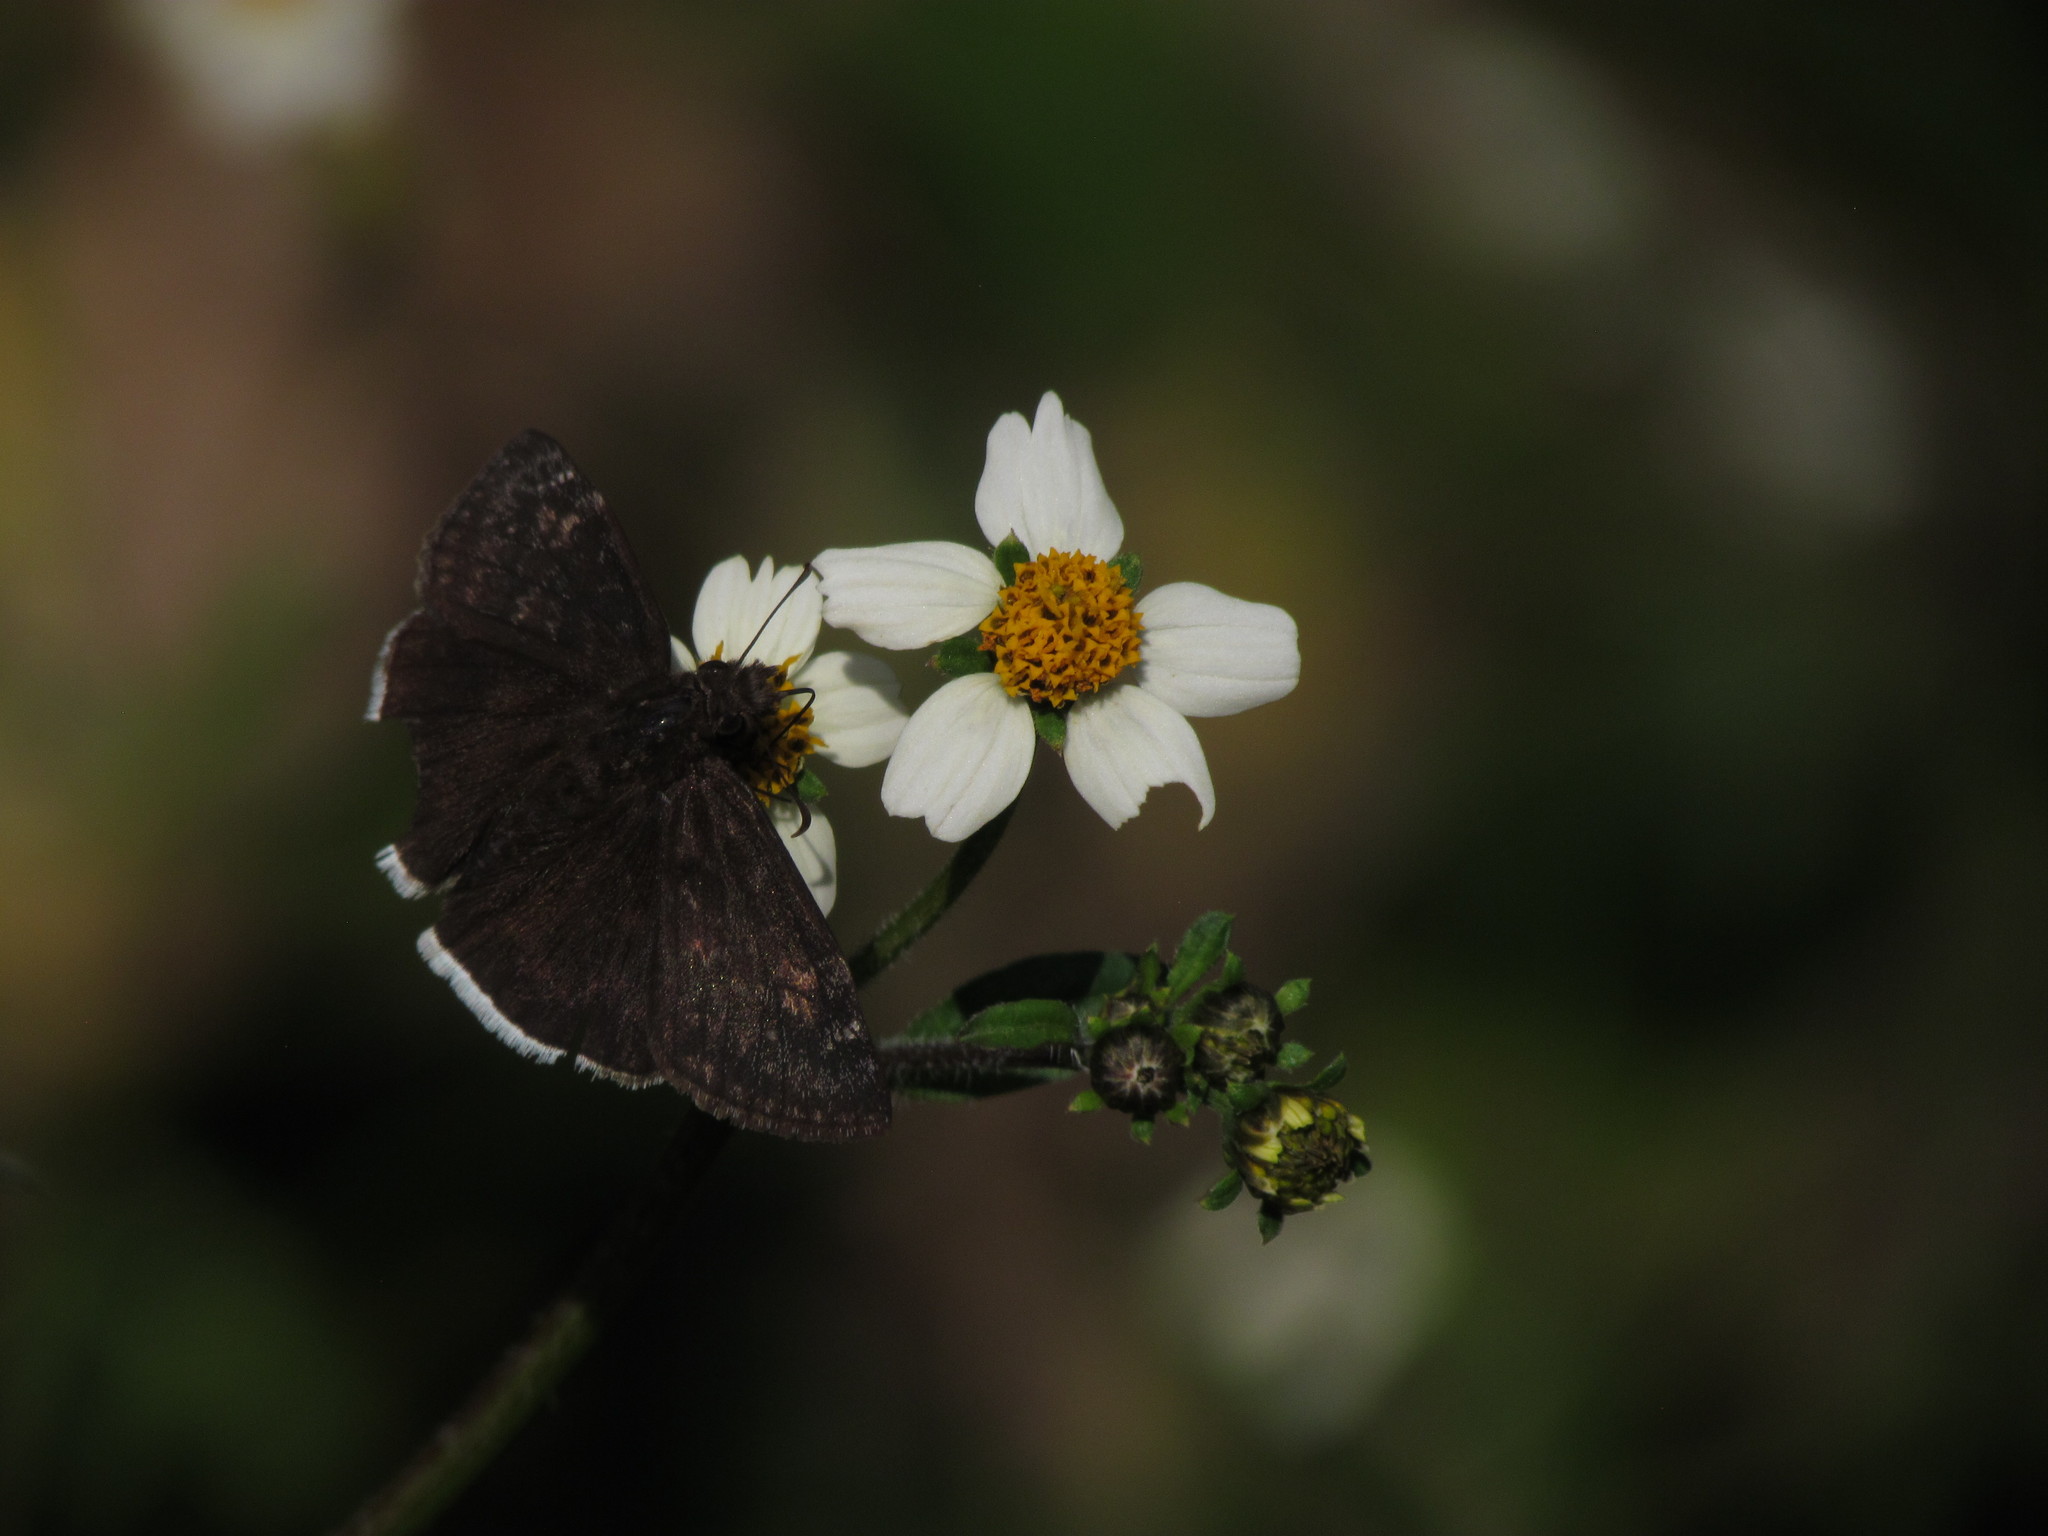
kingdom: Animalia
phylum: Arthropoda
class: Insecta
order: Lepidoptera
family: Hesperiidae
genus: Erynnis
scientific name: Erynnis funeralis
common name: Funereal duskywing
